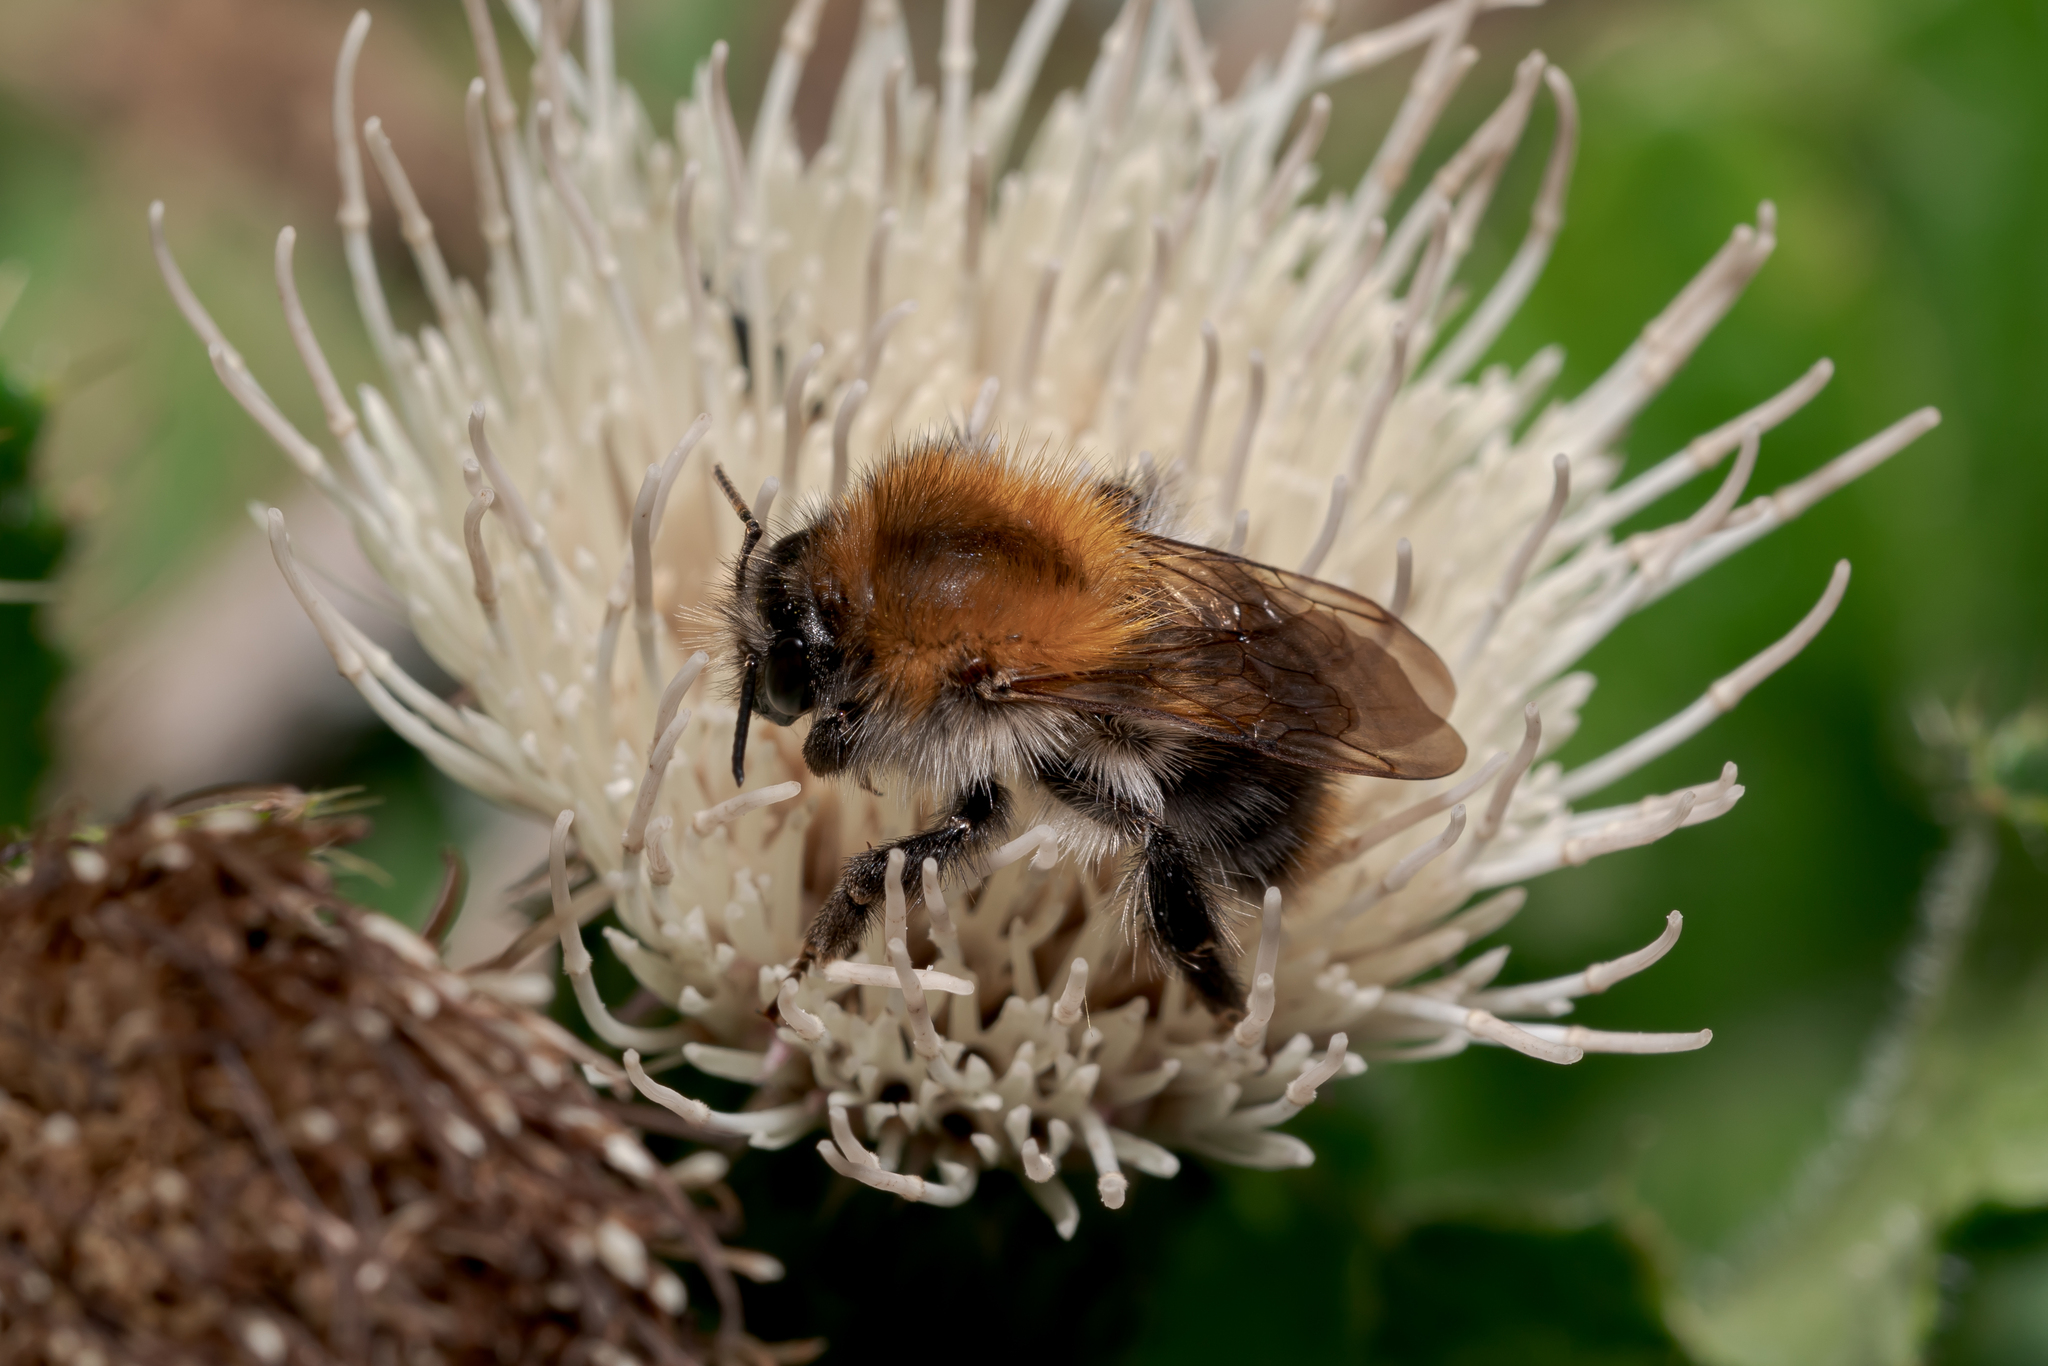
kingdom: Animalia
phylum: Arthropoda
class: Insecta
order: Hymenoptera
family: Apidae
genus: Bombus
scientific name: Bombus pascuorum
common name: Common carder bee
